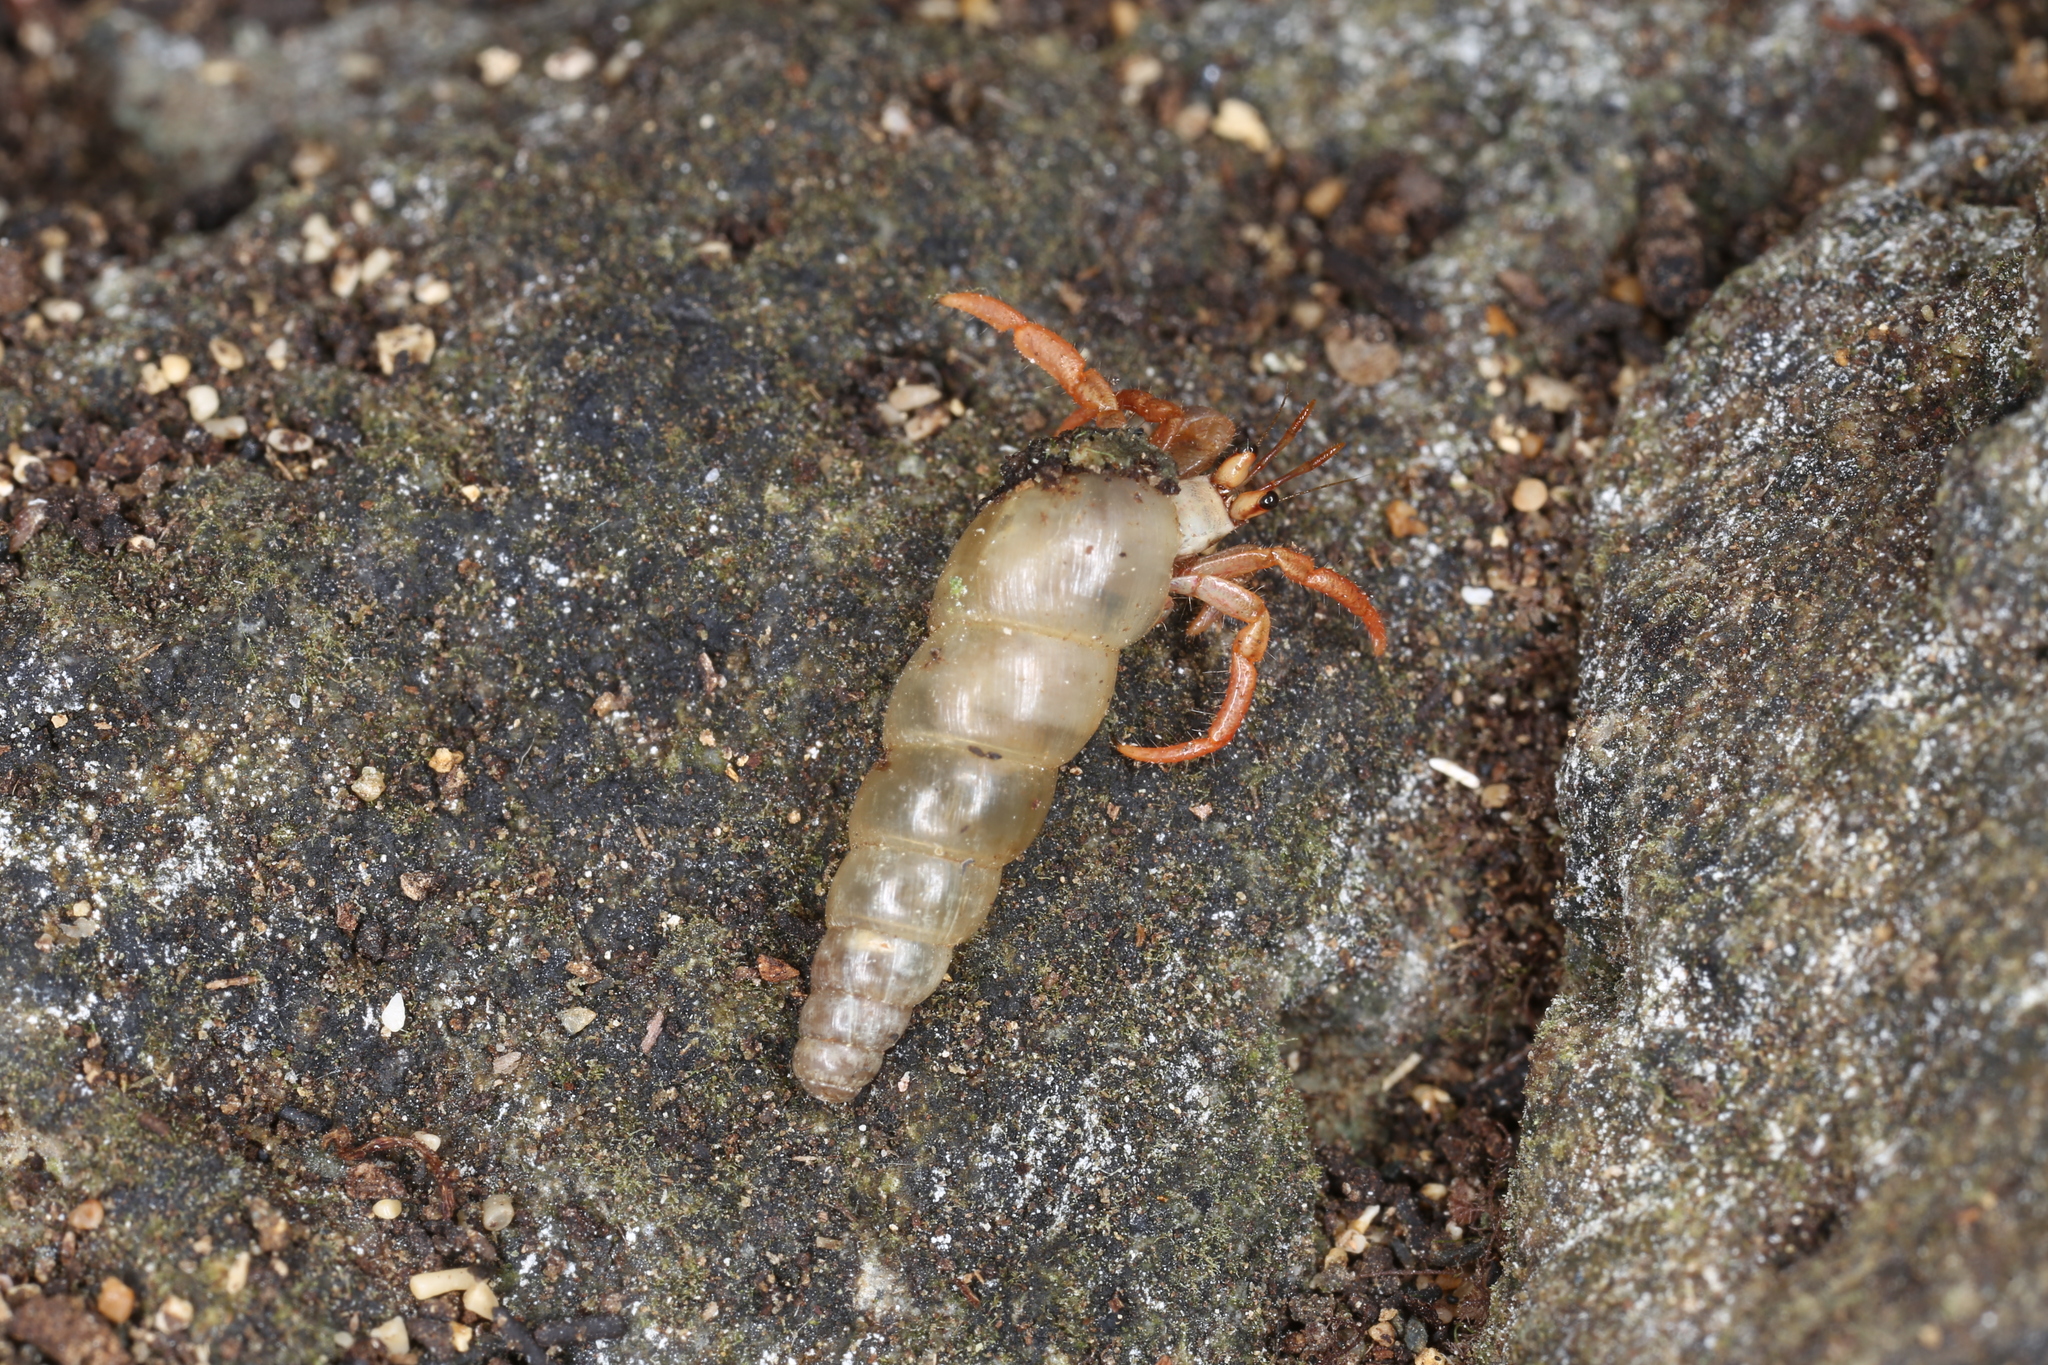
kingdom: Animalia
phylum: Arthropoda
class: Malacostraca
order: Decapoda
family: Coenobitidae
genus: Coenobita
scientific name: Coenobita clypeatus
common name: Caribbean hermit crab
